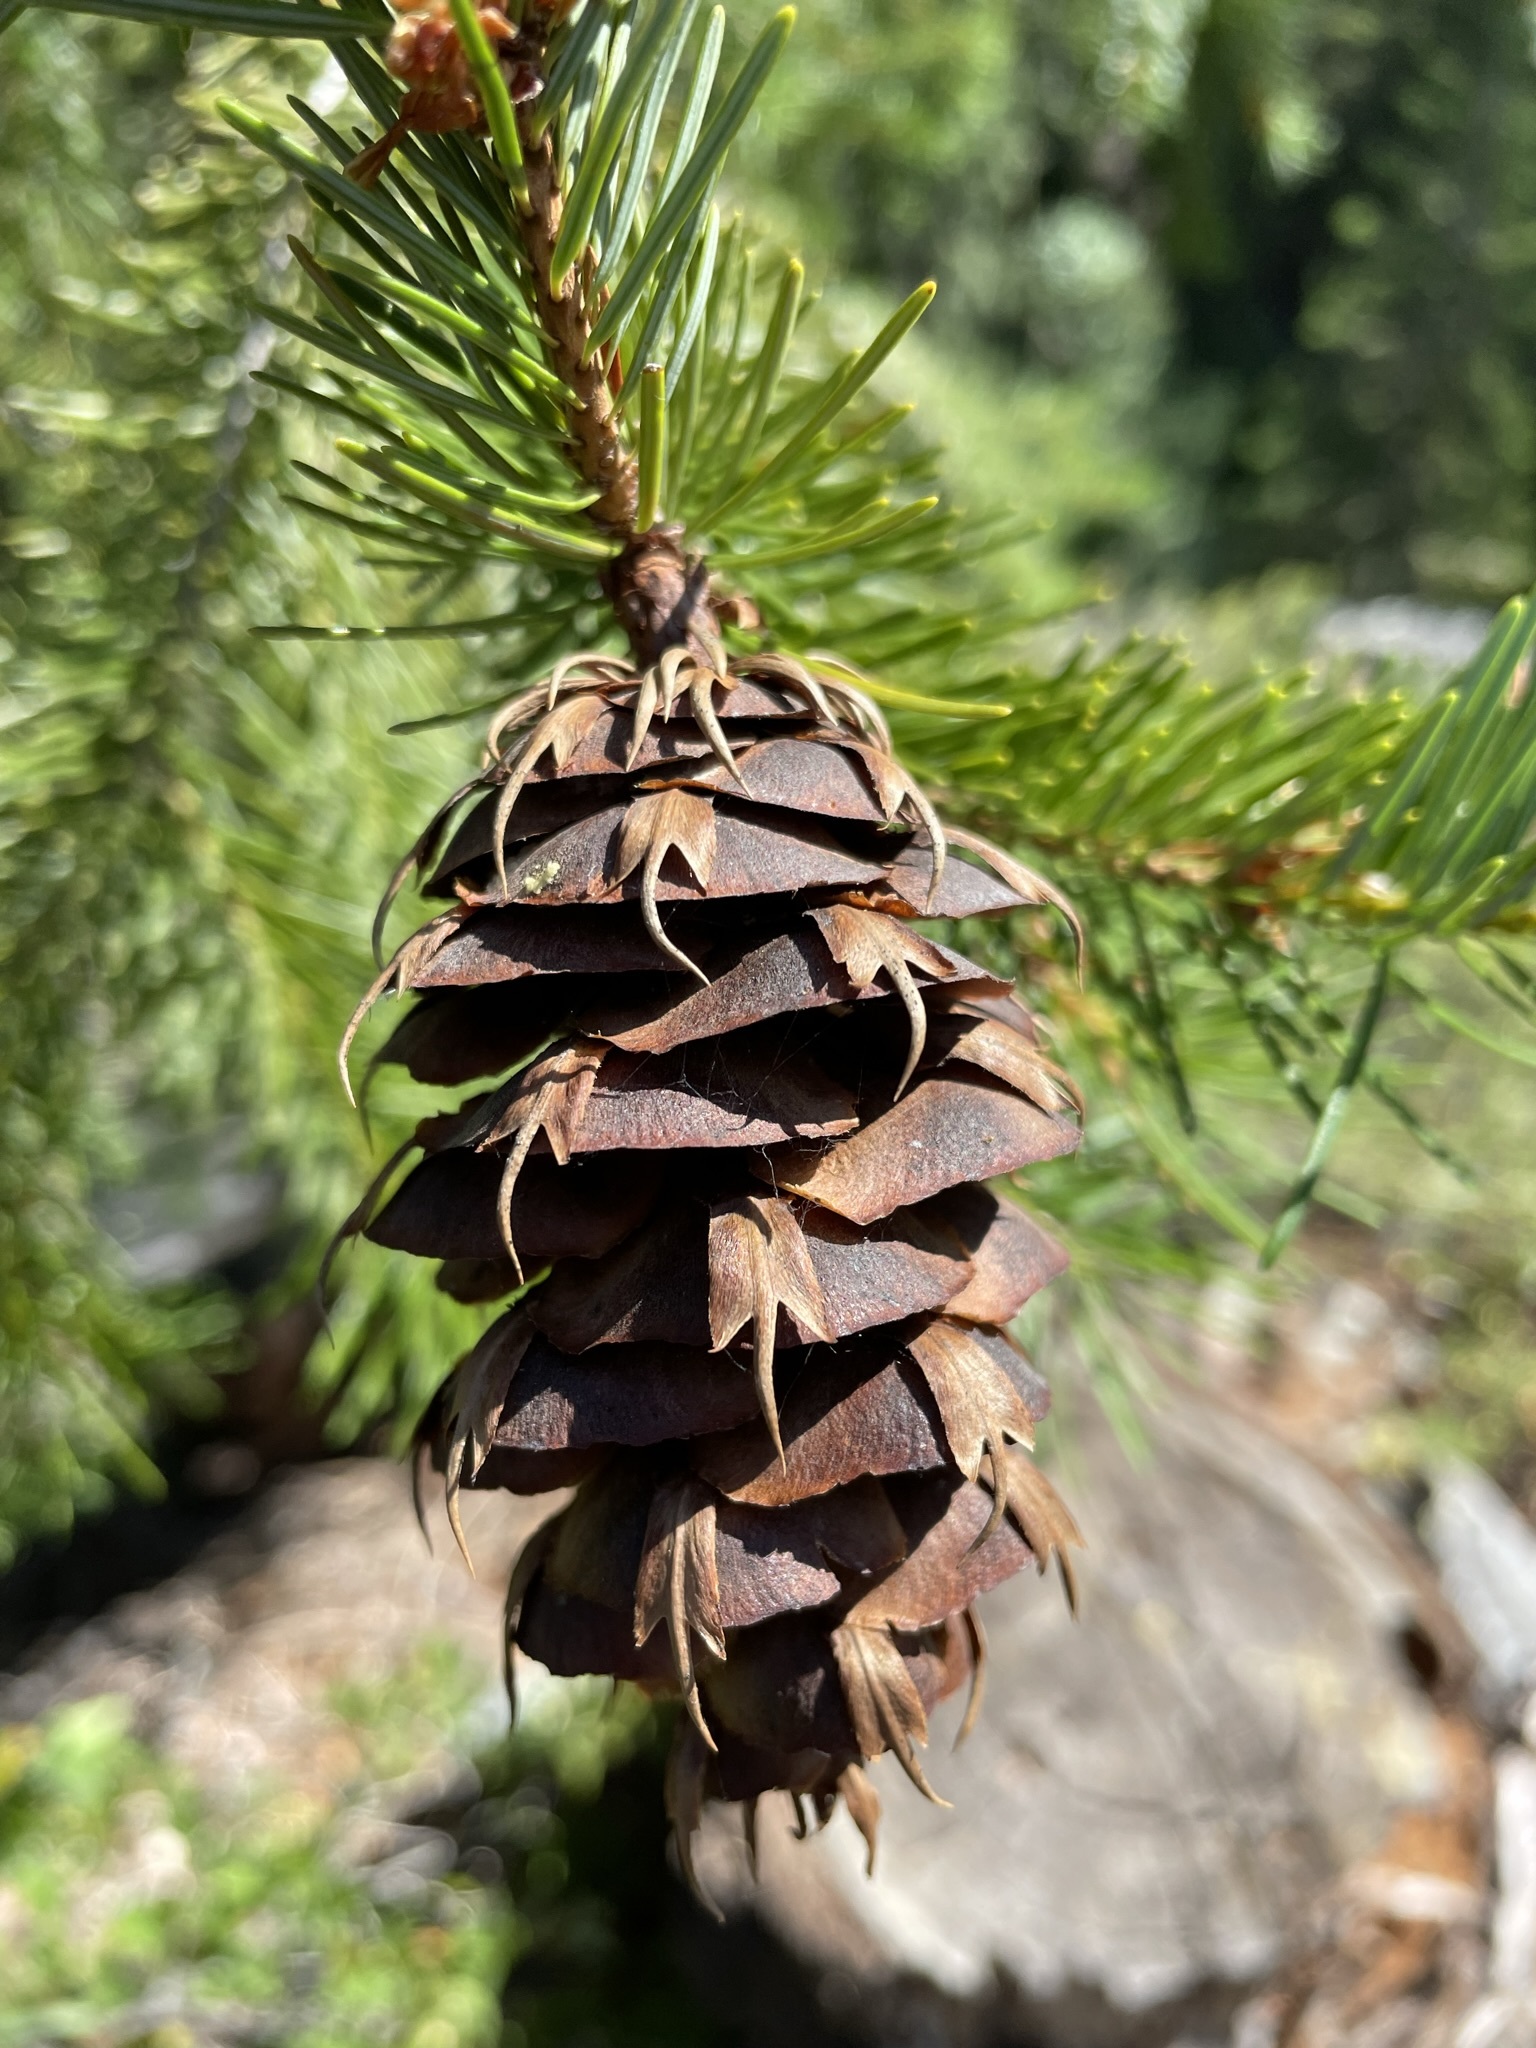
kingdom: Plantae
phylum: Tracheophyta
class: Pinopsida
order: Pinales
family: Pinaceae
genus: Pseudotsuga
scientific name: Pseudotsuga menziesii
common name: Douglas fir
